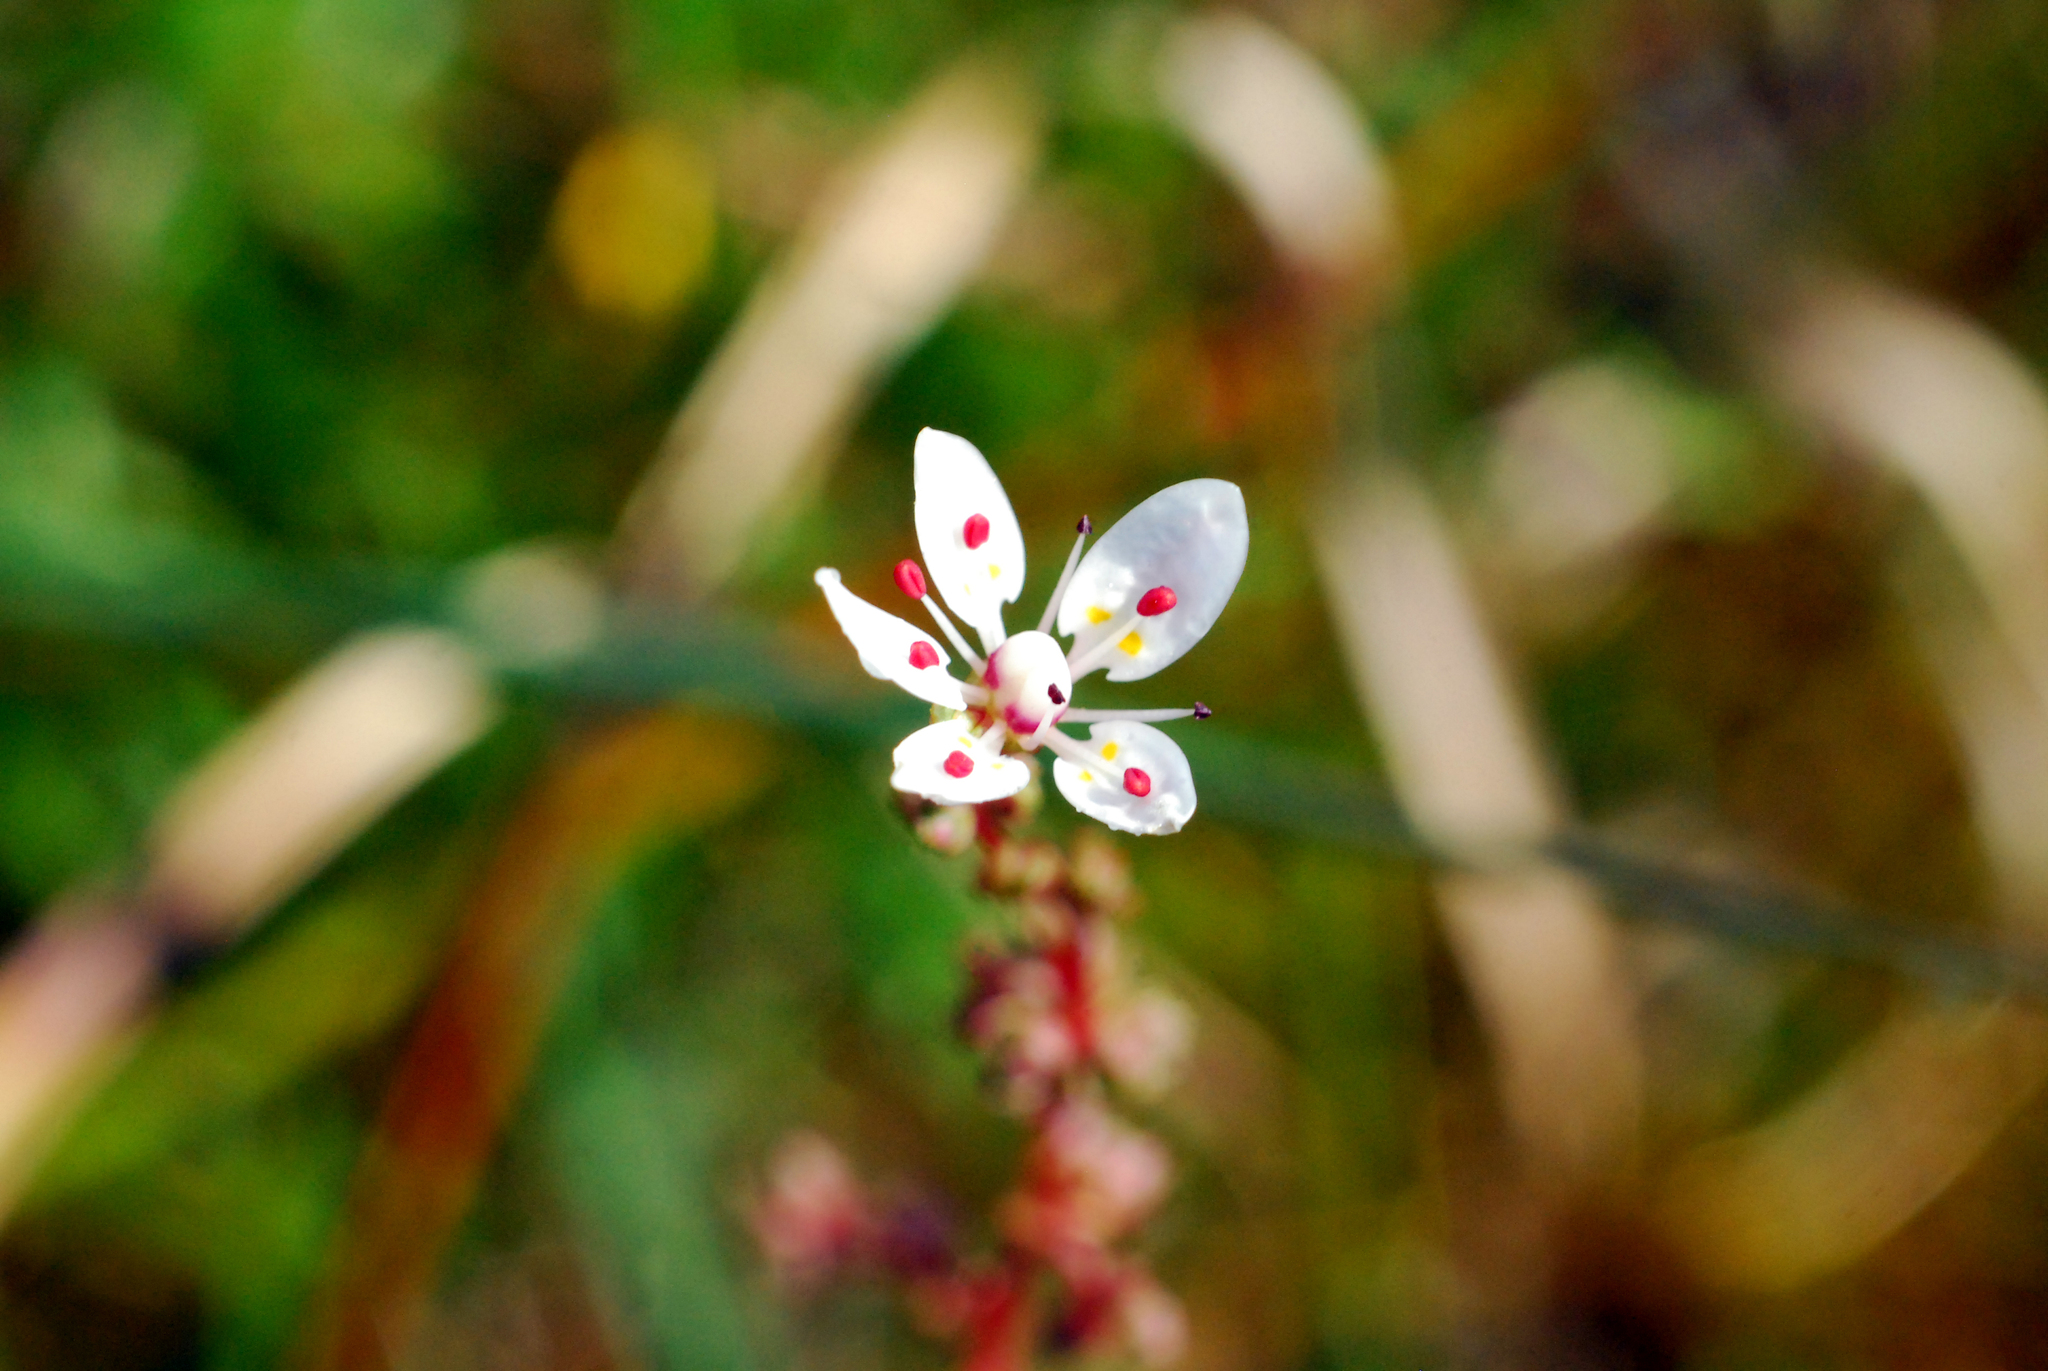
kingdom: Plantae
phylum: Tracheophyta
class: Magnoliopsida
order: Saxifragales
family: Saxifragaceae
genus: Micranthes
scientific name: Micranthes foliolosa
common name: Leafystem saxifrage
